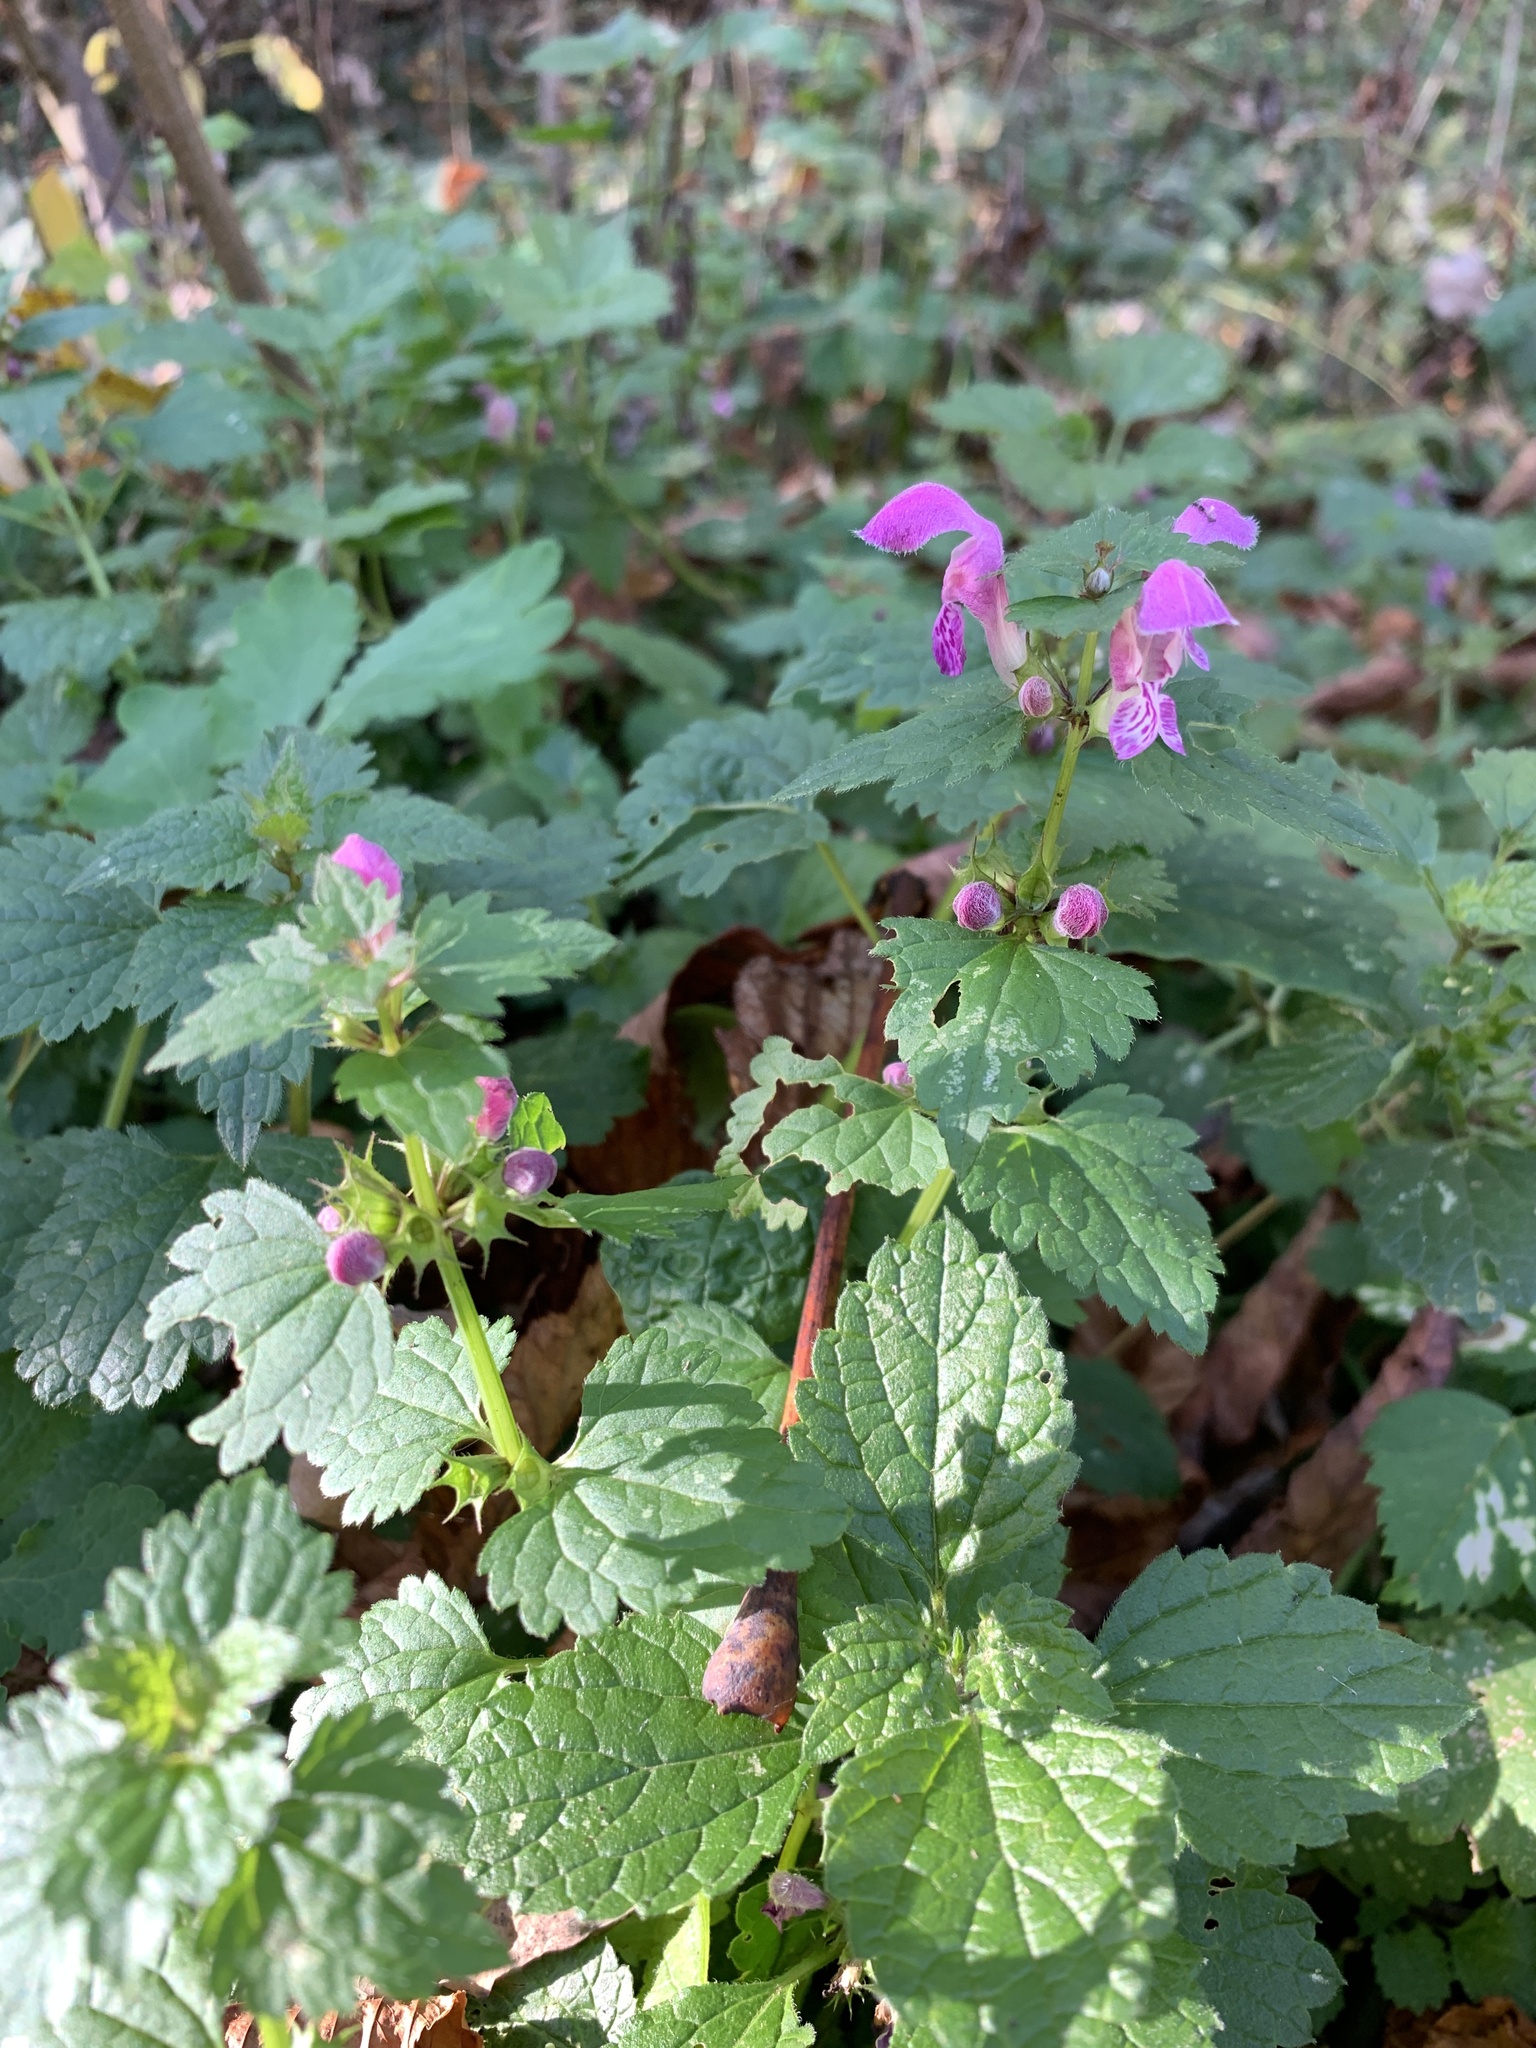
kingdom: Plantae
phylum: Tracheophyta
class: Magnoliopsida
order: Lamiales
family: Lamiaceae
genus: Lamium
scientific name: Lamium maculatum
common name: Spotted dead-nettle
